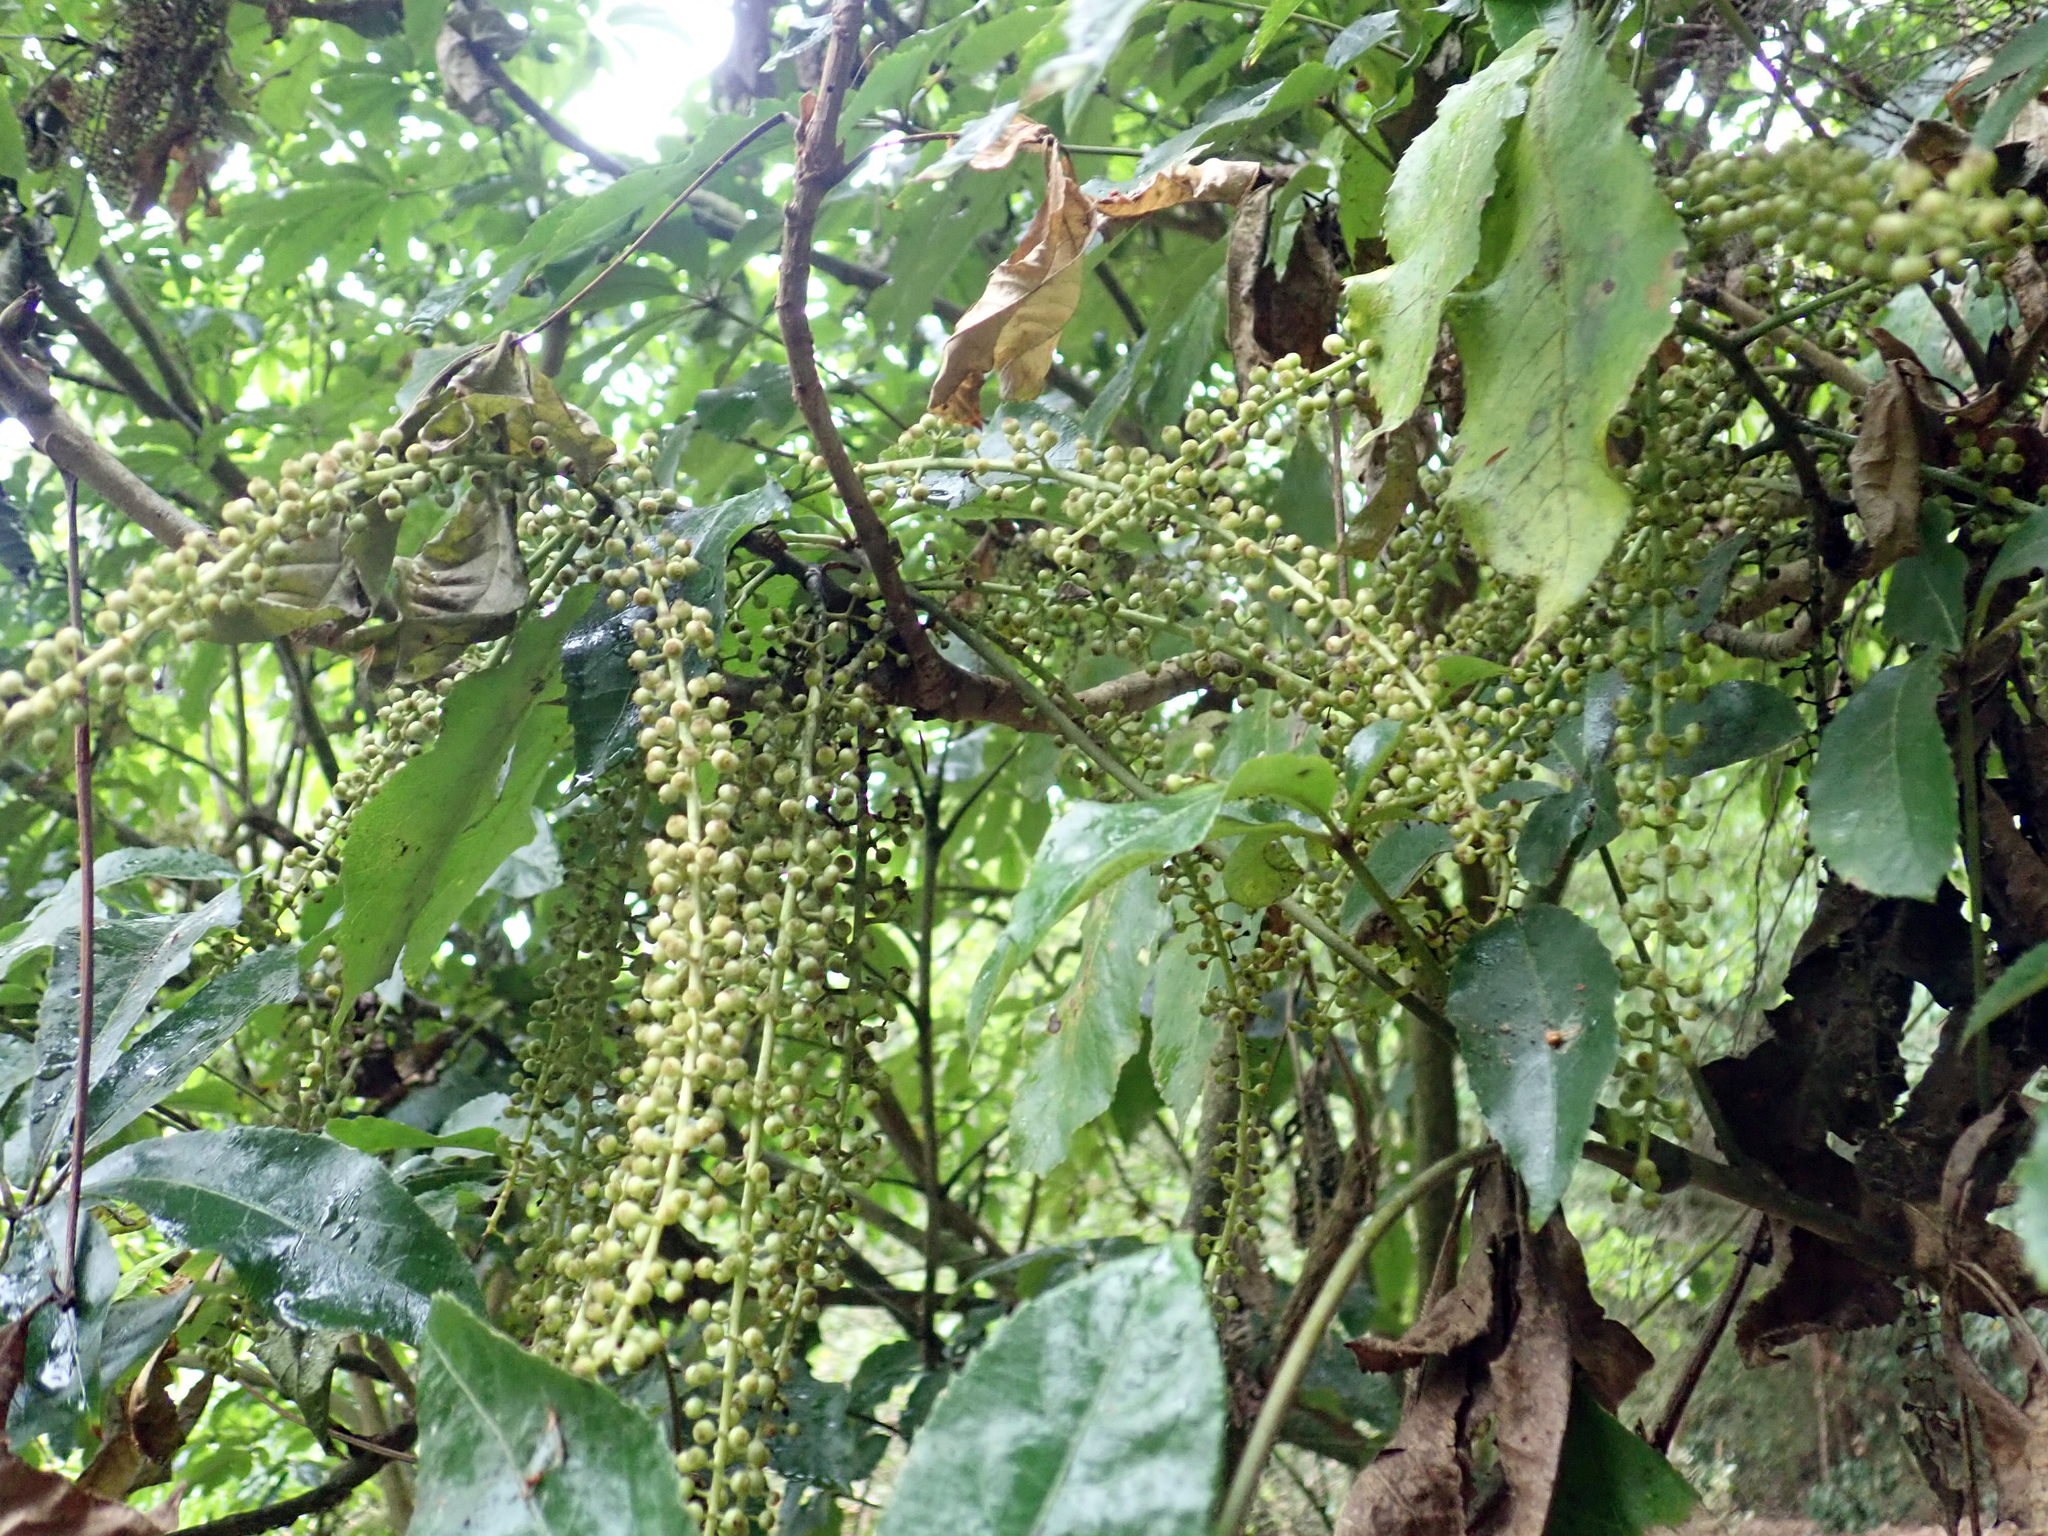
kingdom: Plantae
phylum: Tracheophyta
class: Magnoliopsida
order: Apiales
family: Araliaceae
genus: Schefflera
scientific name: Schefflera digitata
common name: Pate
